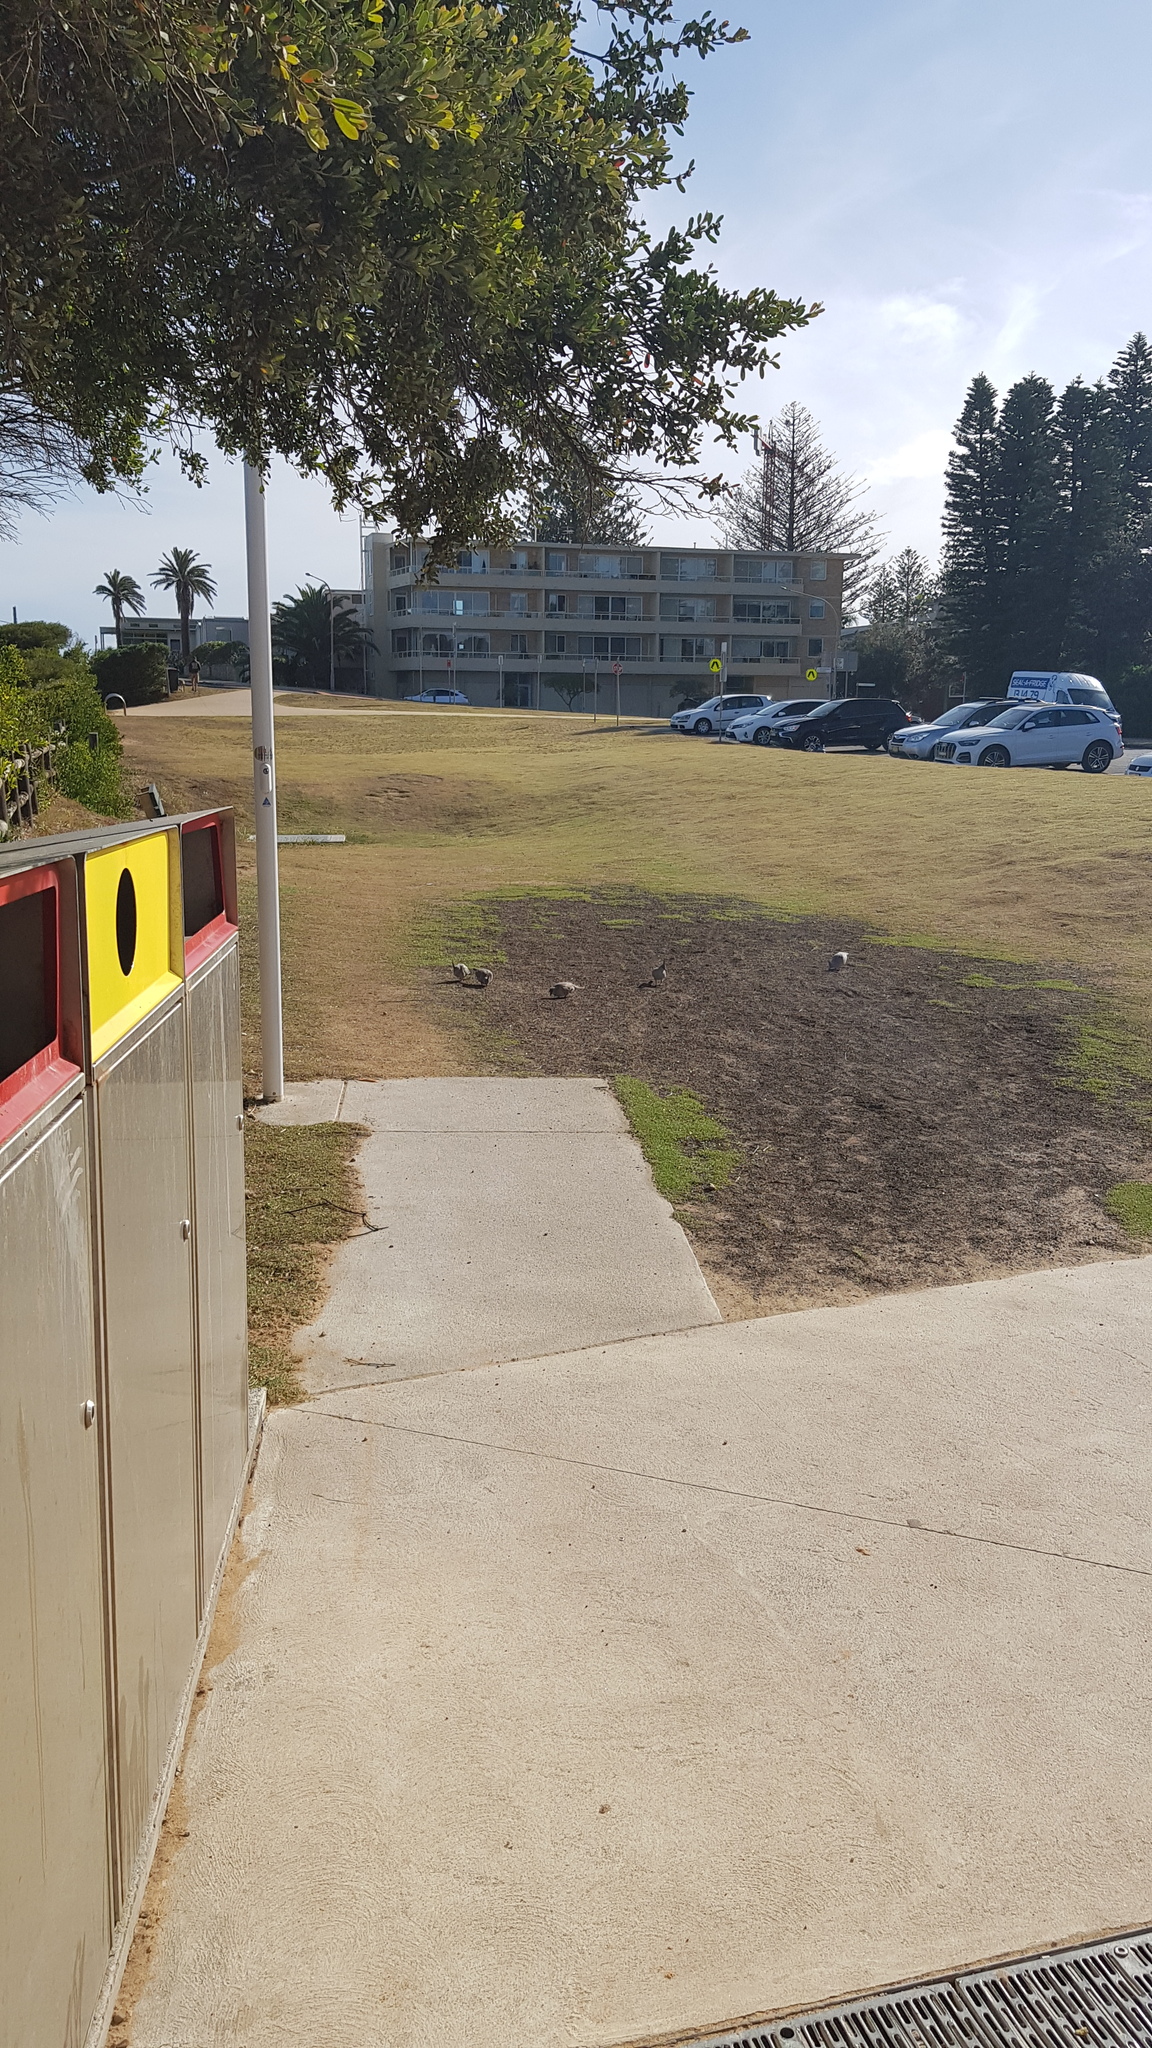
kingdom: Animalia
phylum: Chordata
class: Aves
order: Columbiformes
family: Columbidae
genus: Ocyphaps
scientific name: Ocyphaps lophotes
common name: Crested pigeon
